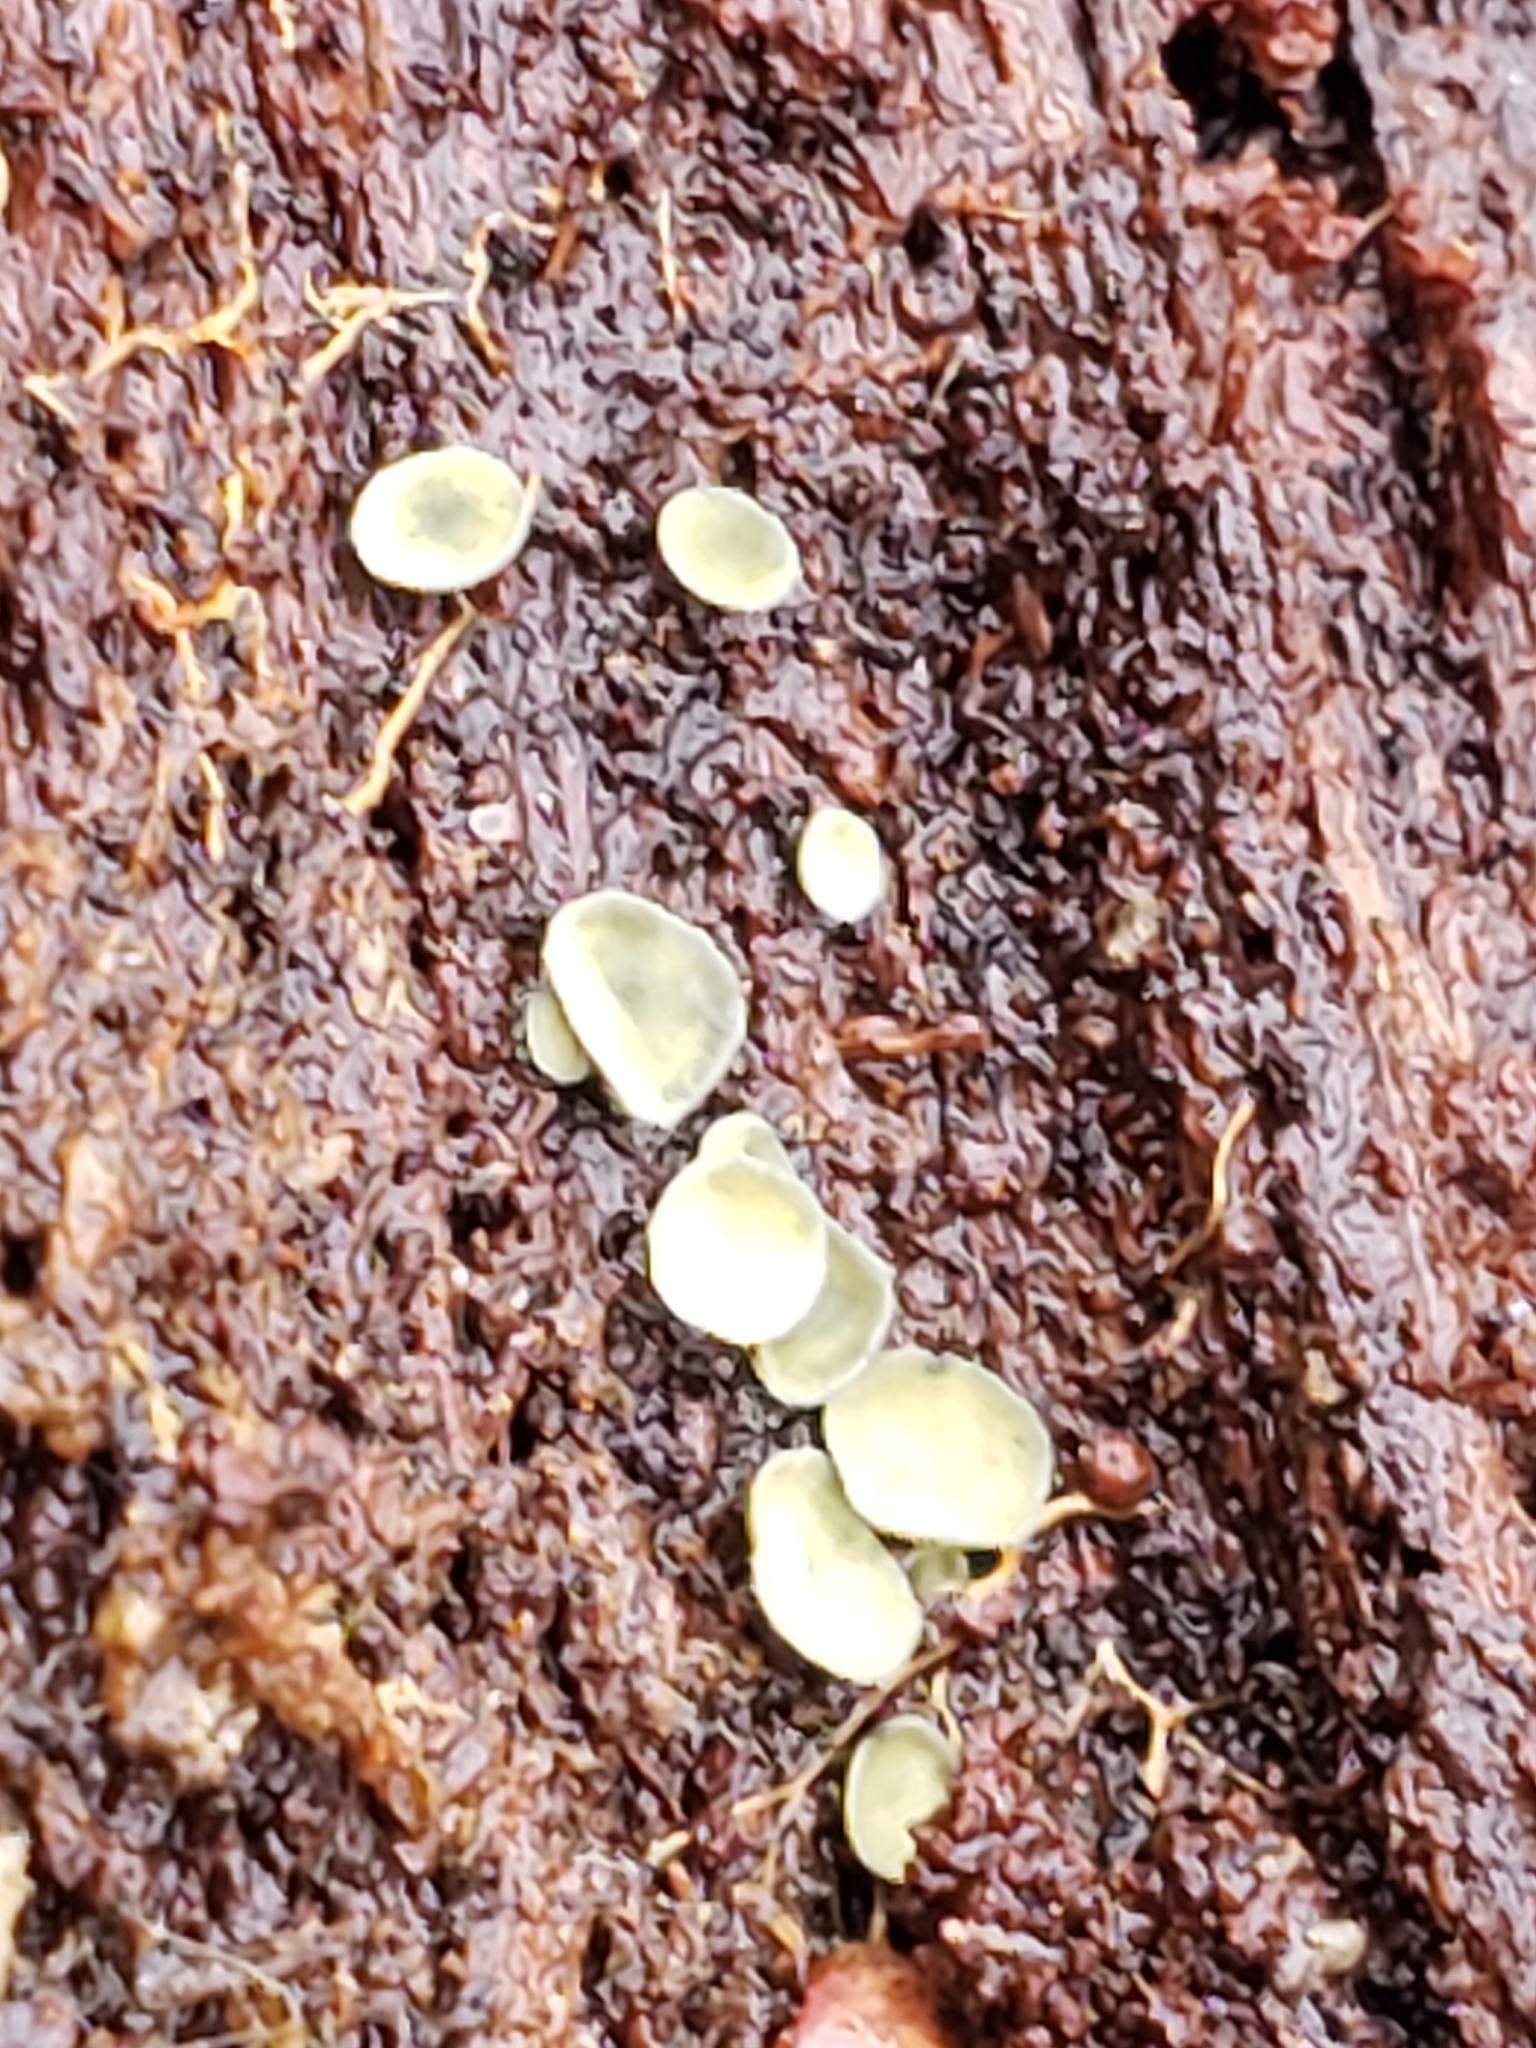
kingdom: Fungi
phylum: Ascomycota
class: Leotiomycetes
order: Helotiales
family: Chlorospleniaceae
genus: Chlorosplenium
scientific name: Chlorosplenium chlora
